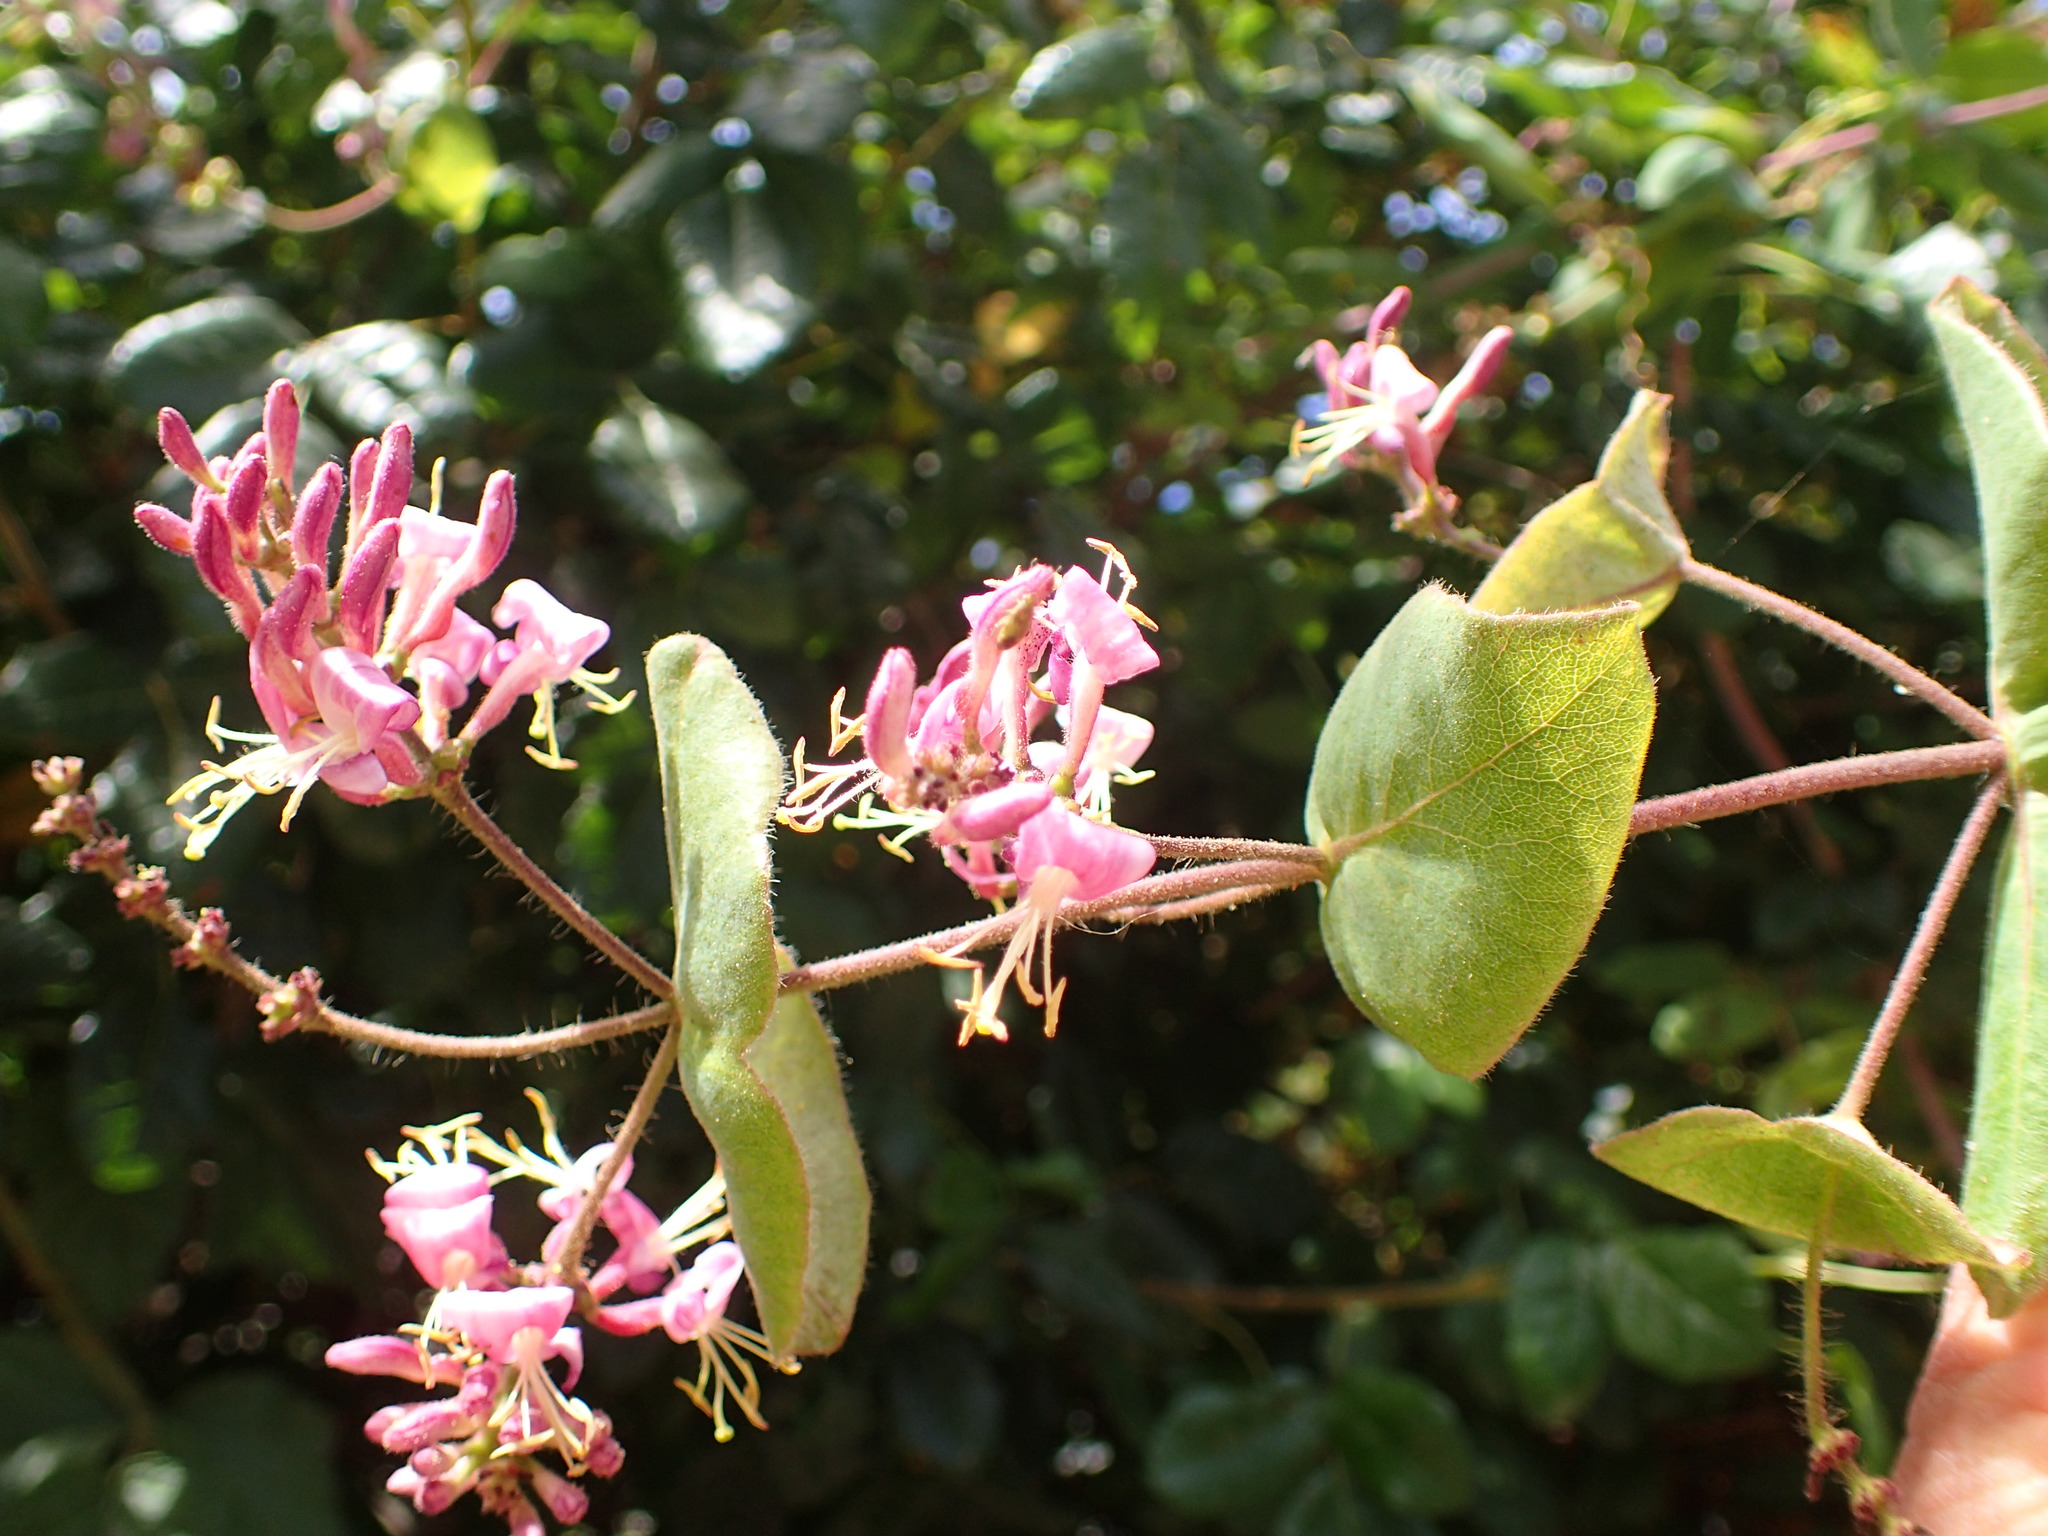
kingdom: Plantae
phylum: Tracheophyta
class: Magnoliopsida
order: Dipsacales
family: Caprifoliaceae
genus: Lonicera
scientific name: Lonicera hispidula
